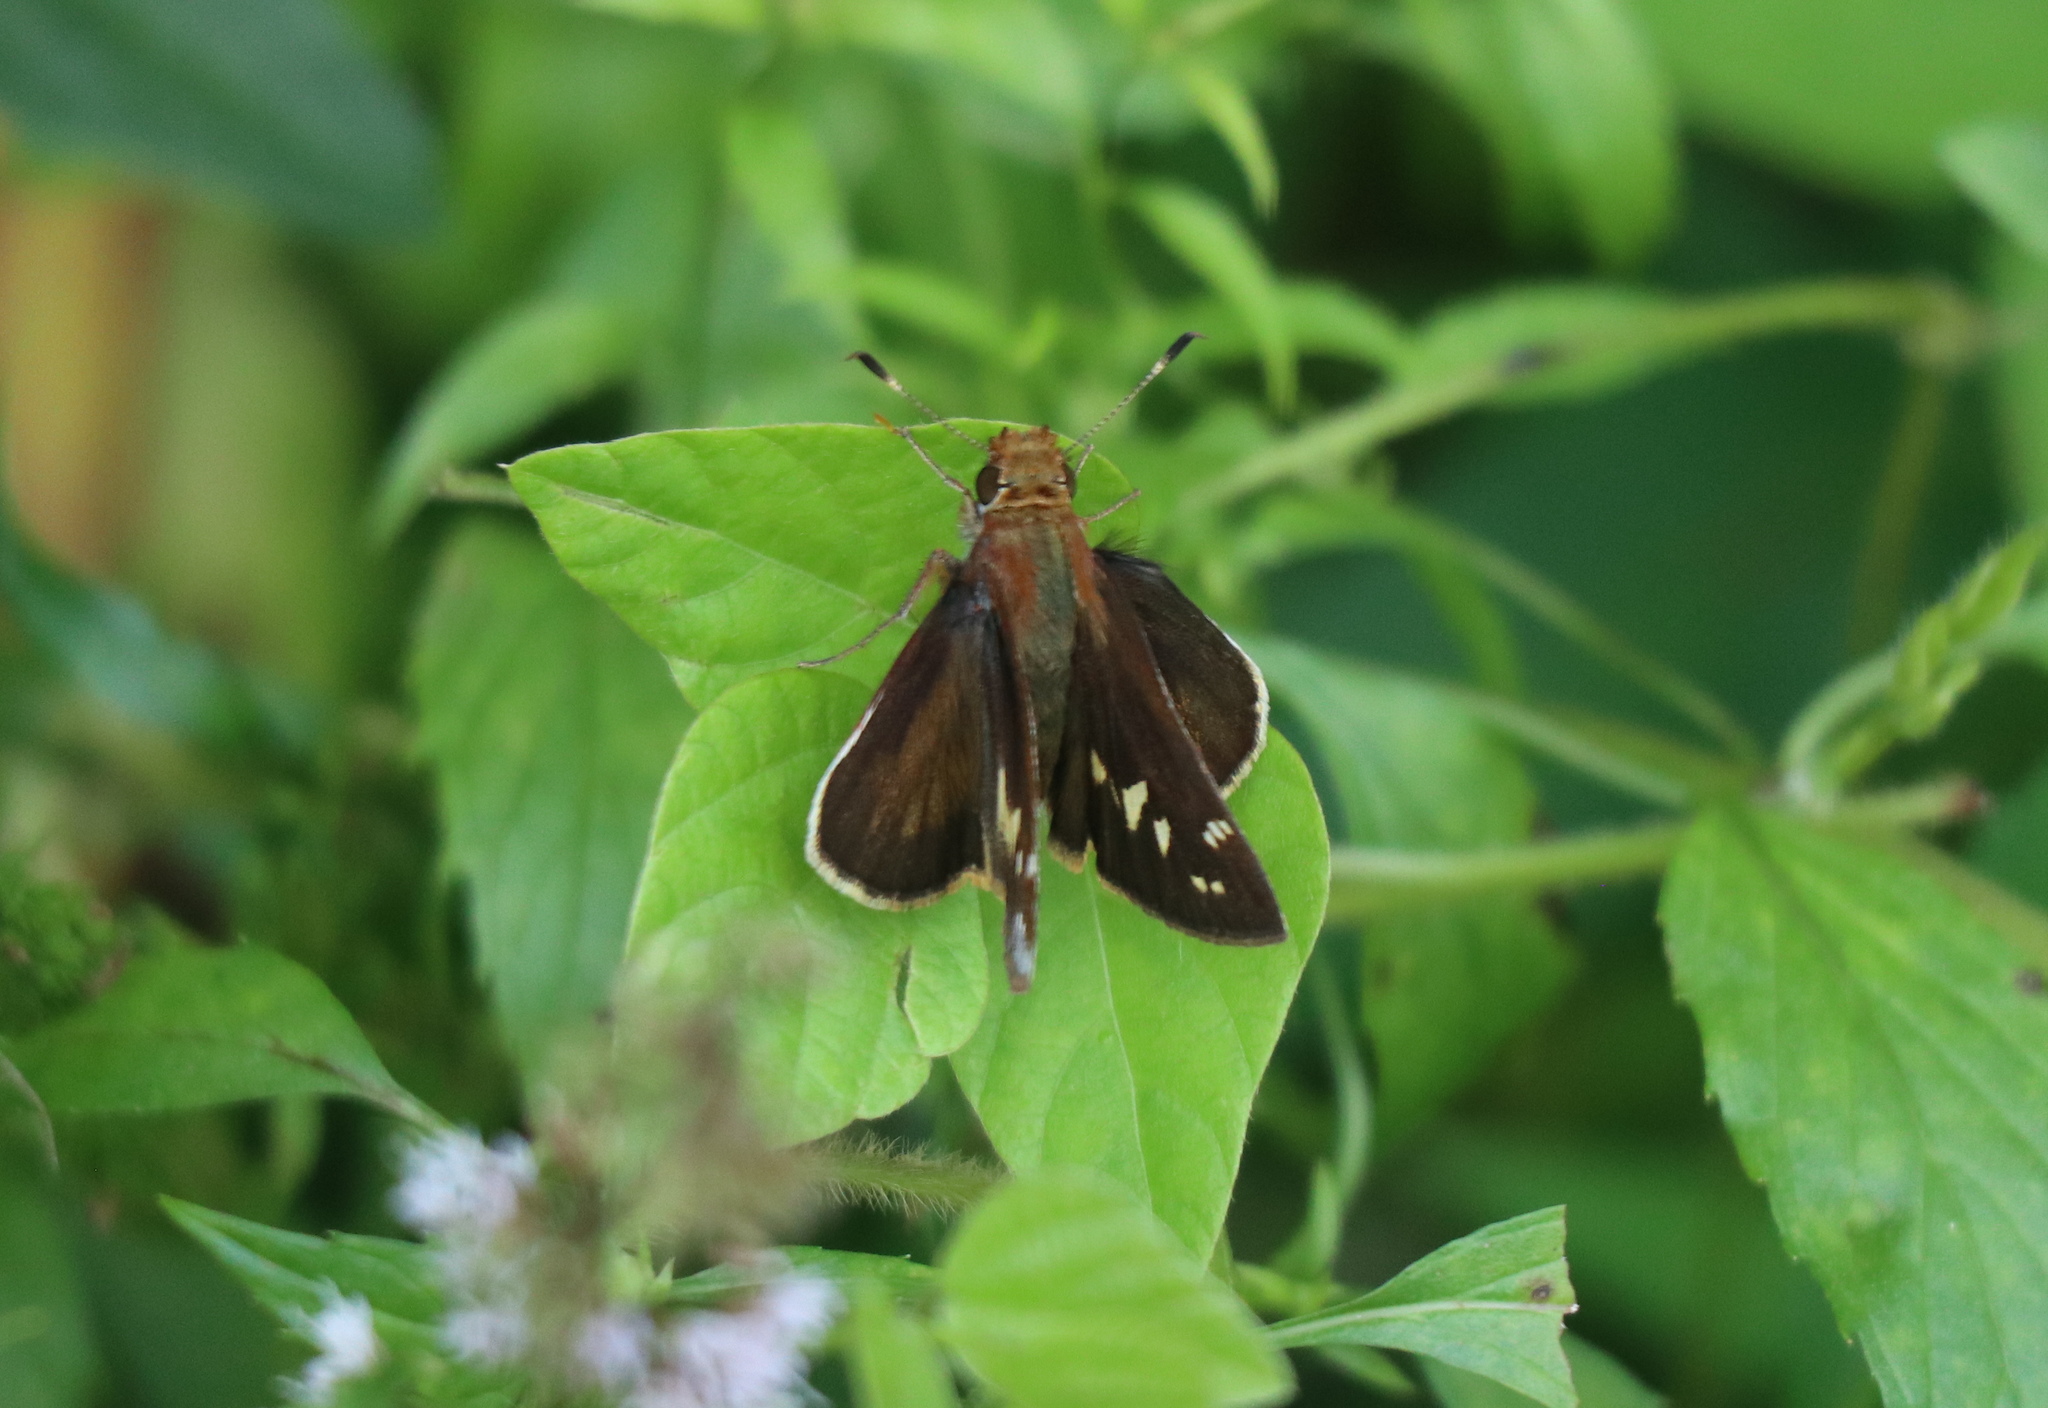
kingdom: Animalia
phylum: Arthropoda
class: Insecta
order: Lepidoptera
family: Hesperiidae
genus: Lon
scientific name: Lon zabulon
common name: Zabulon skipper
